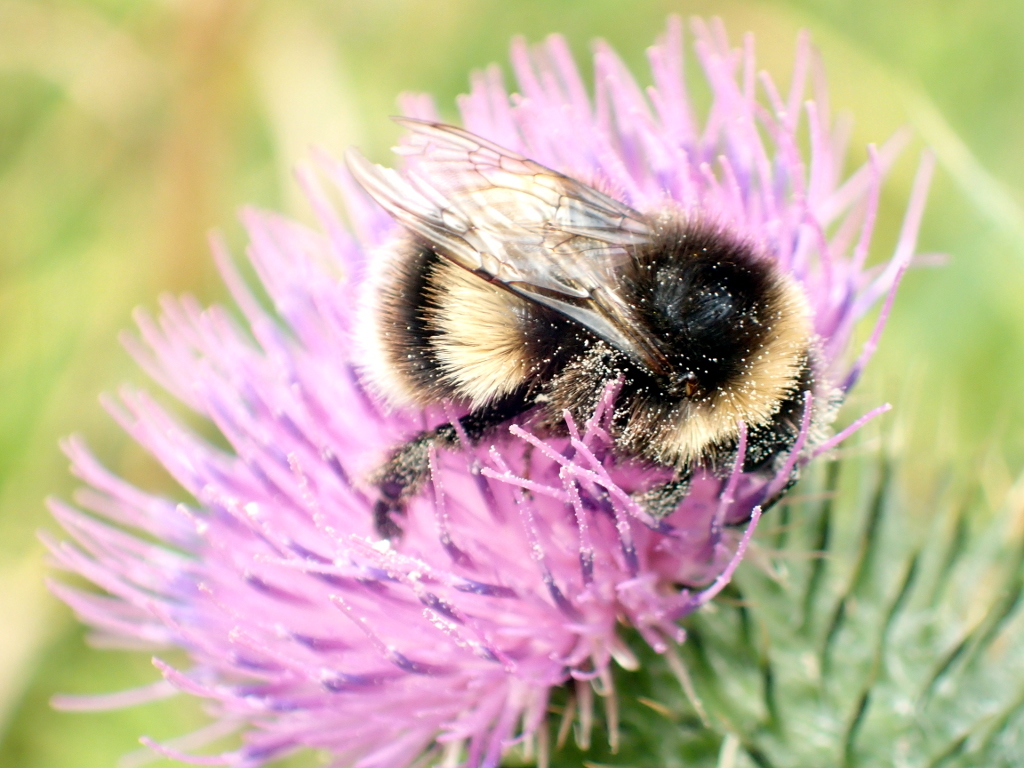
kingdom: Animalia
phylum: Arthropoda
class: Insecta
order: Hymenoptera
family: Apidae
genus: Bombus
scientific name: Bombus terrestris
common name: Buff-tailed bumblebee
